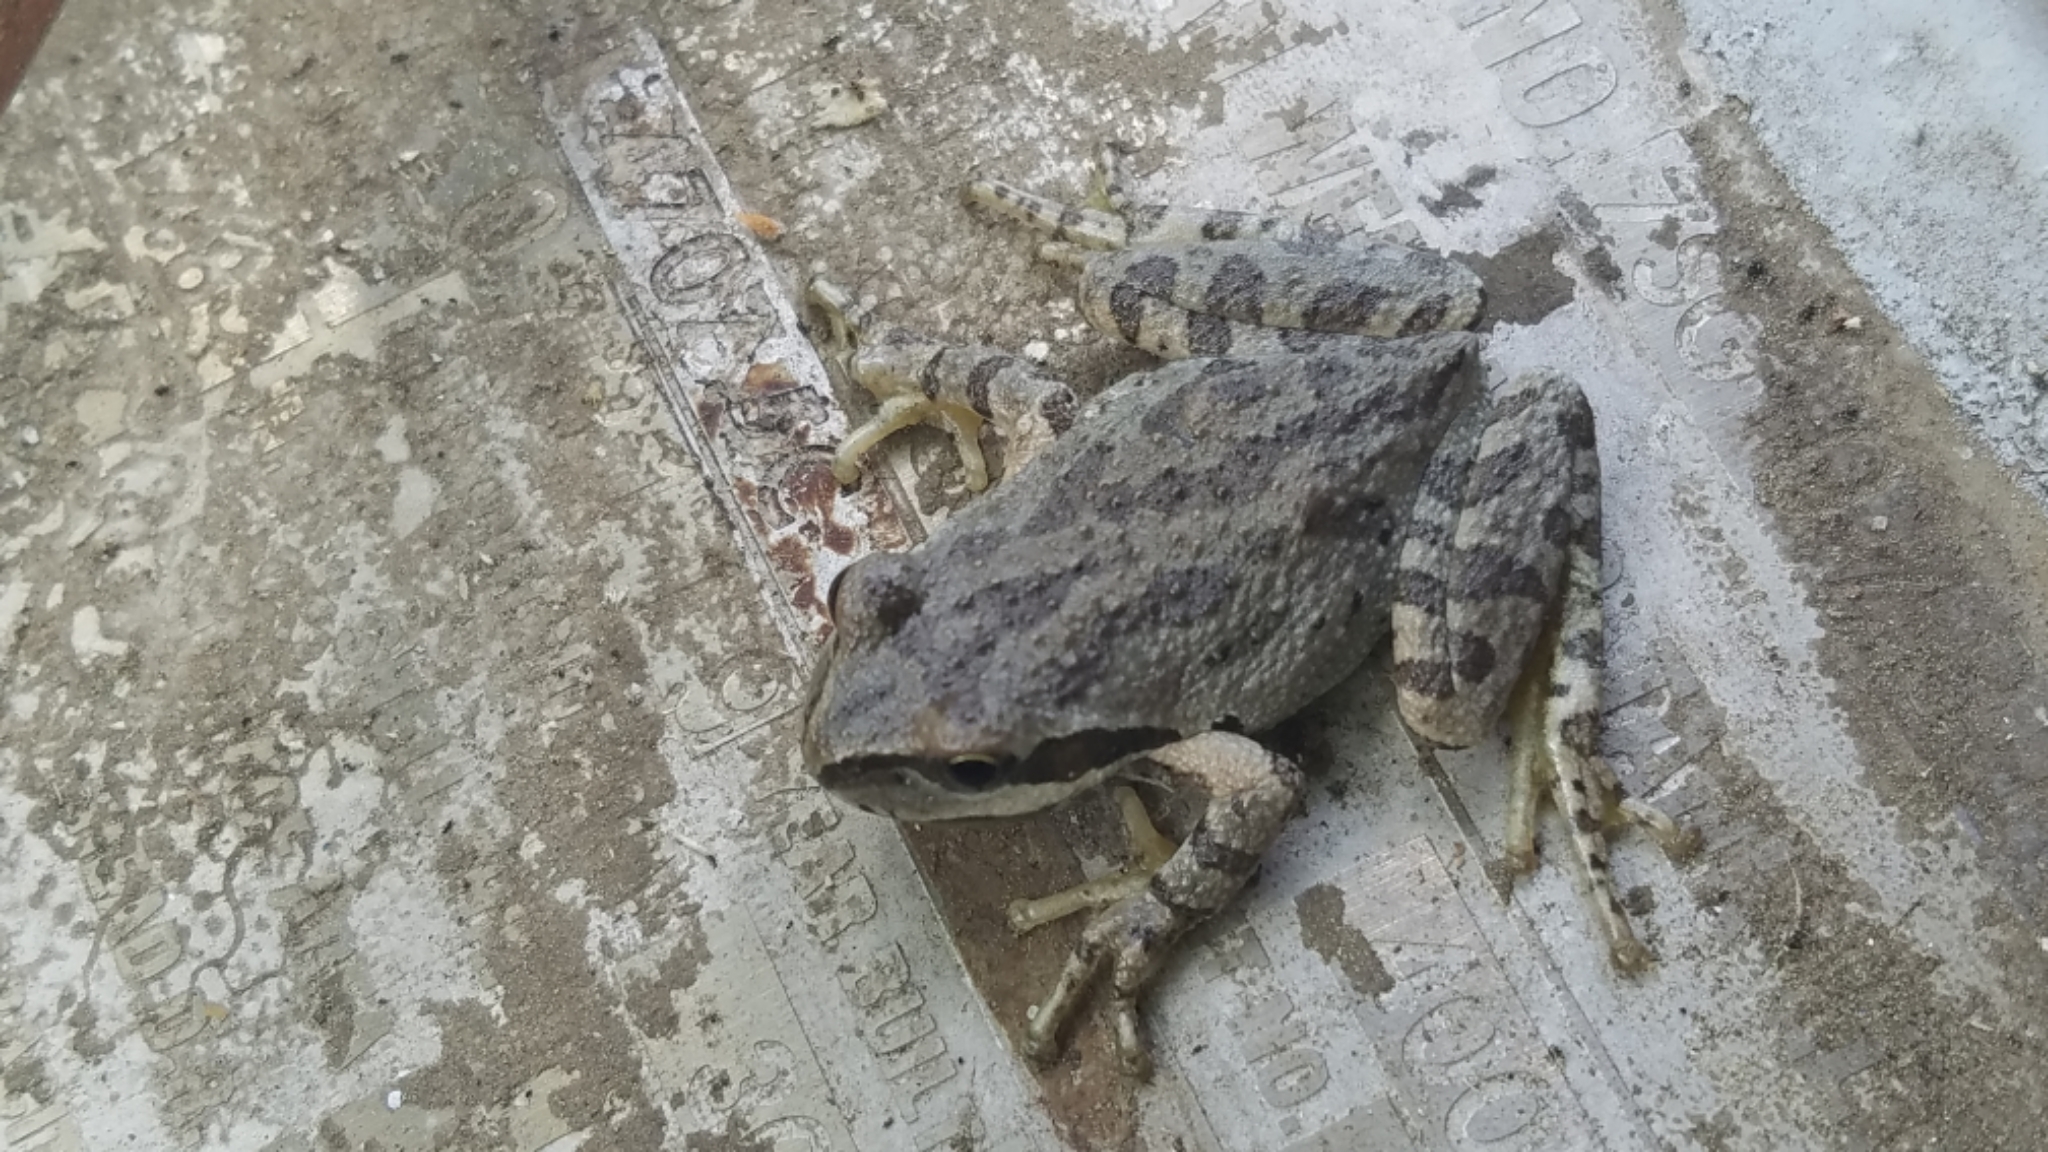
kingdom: Animalia
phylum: Chordata
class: Amphibia
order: Anura
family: Hylidae
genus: Pseudacris
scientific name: Pseudacris regilla
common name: Pacific chorus frog
